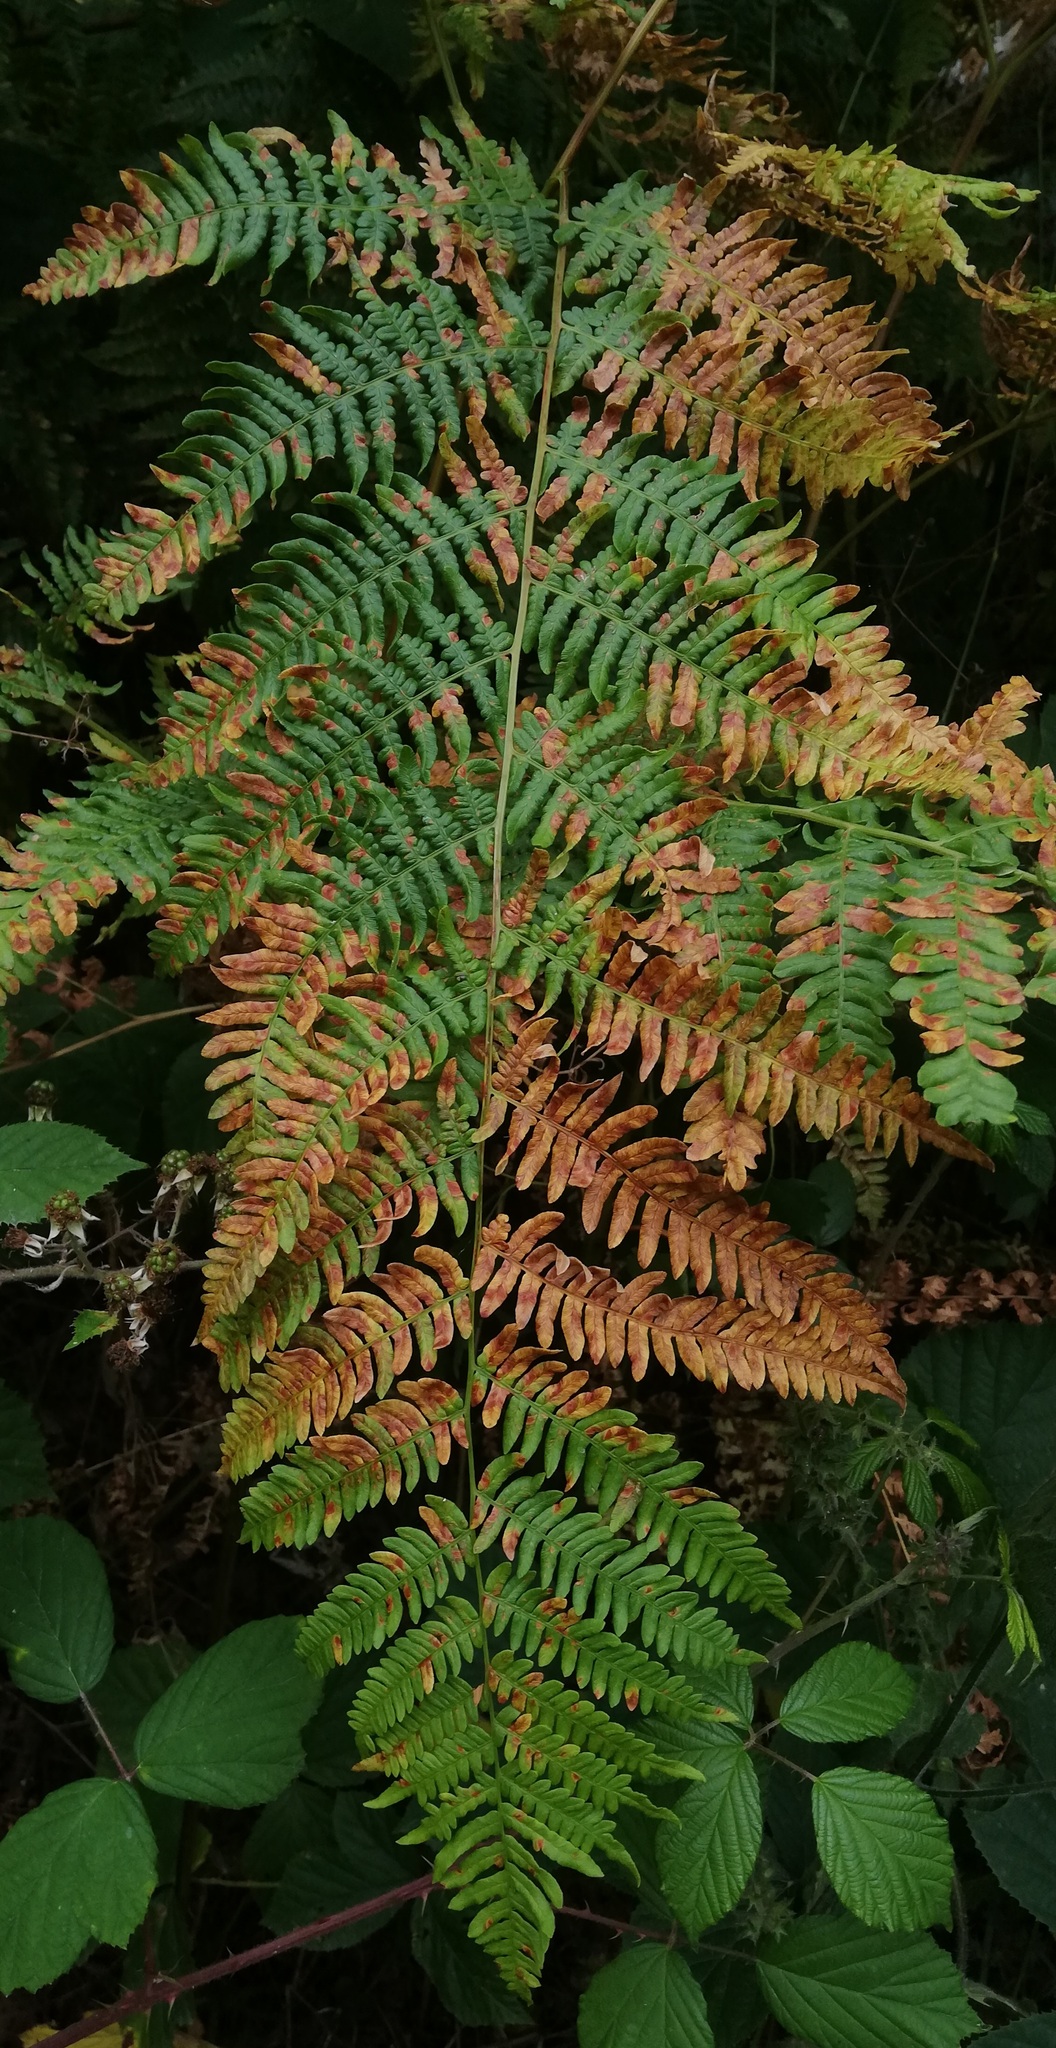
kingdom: Plantae
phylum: Tracheophyta
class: Polypodiopsida
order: Polypodiales
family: Dennstaedtiaceae
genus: Pteridium
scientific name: Pteridium aquilinum
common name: Bracken
